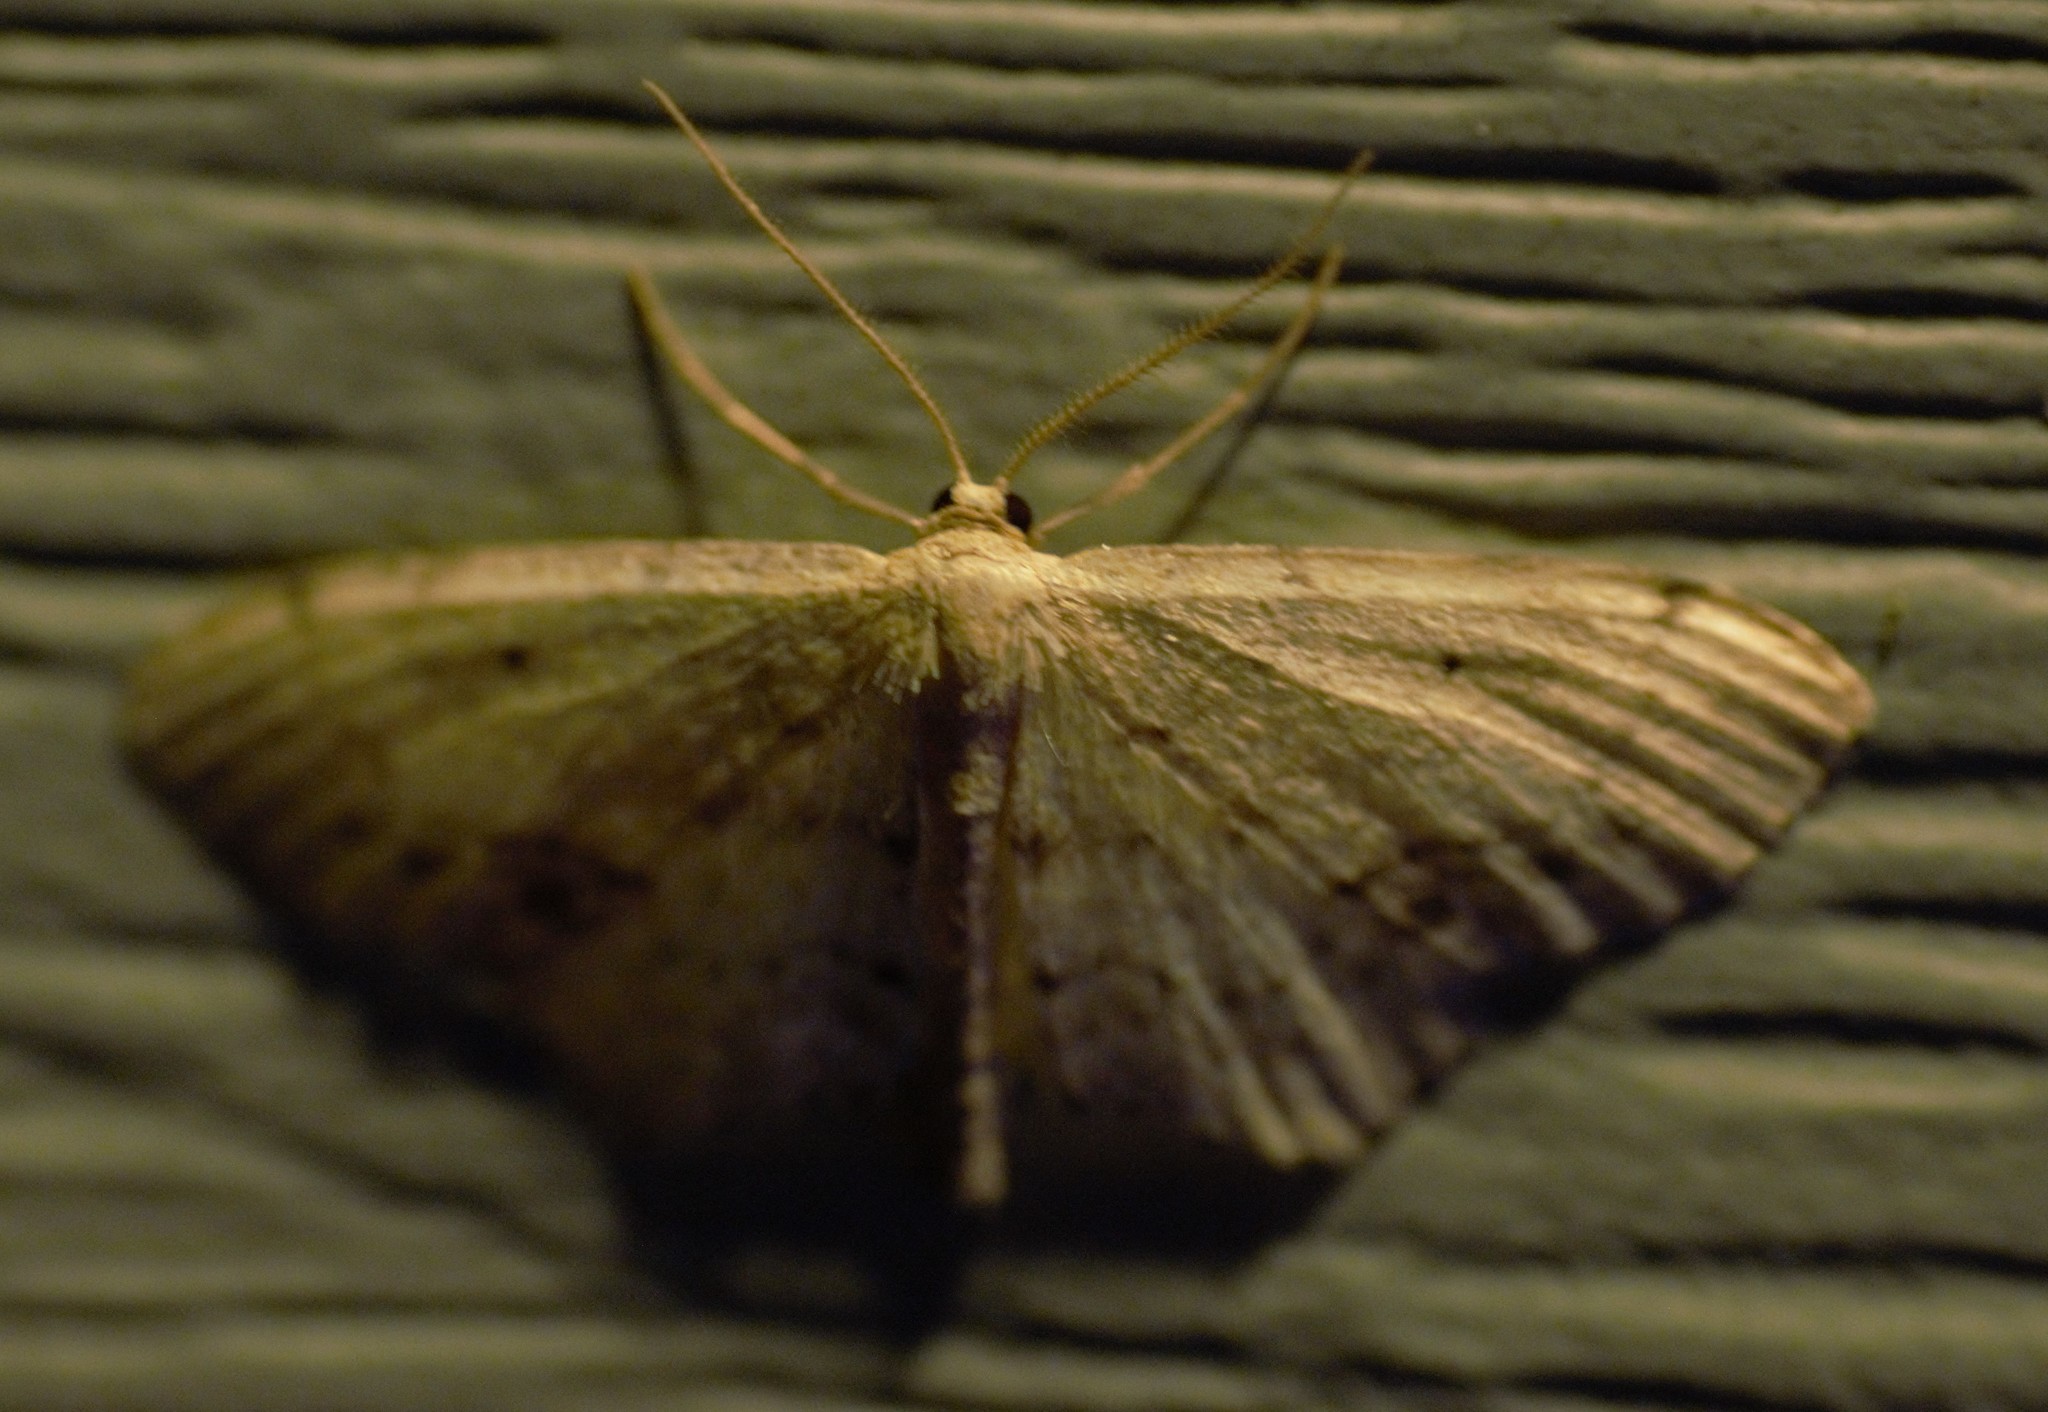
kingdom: Animalia
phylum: Arthropoda
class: Insecta
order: Lepidoptera
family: Geometridae
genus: Idaea
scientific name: Idaea dimidiata
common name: Single-dotted wave
